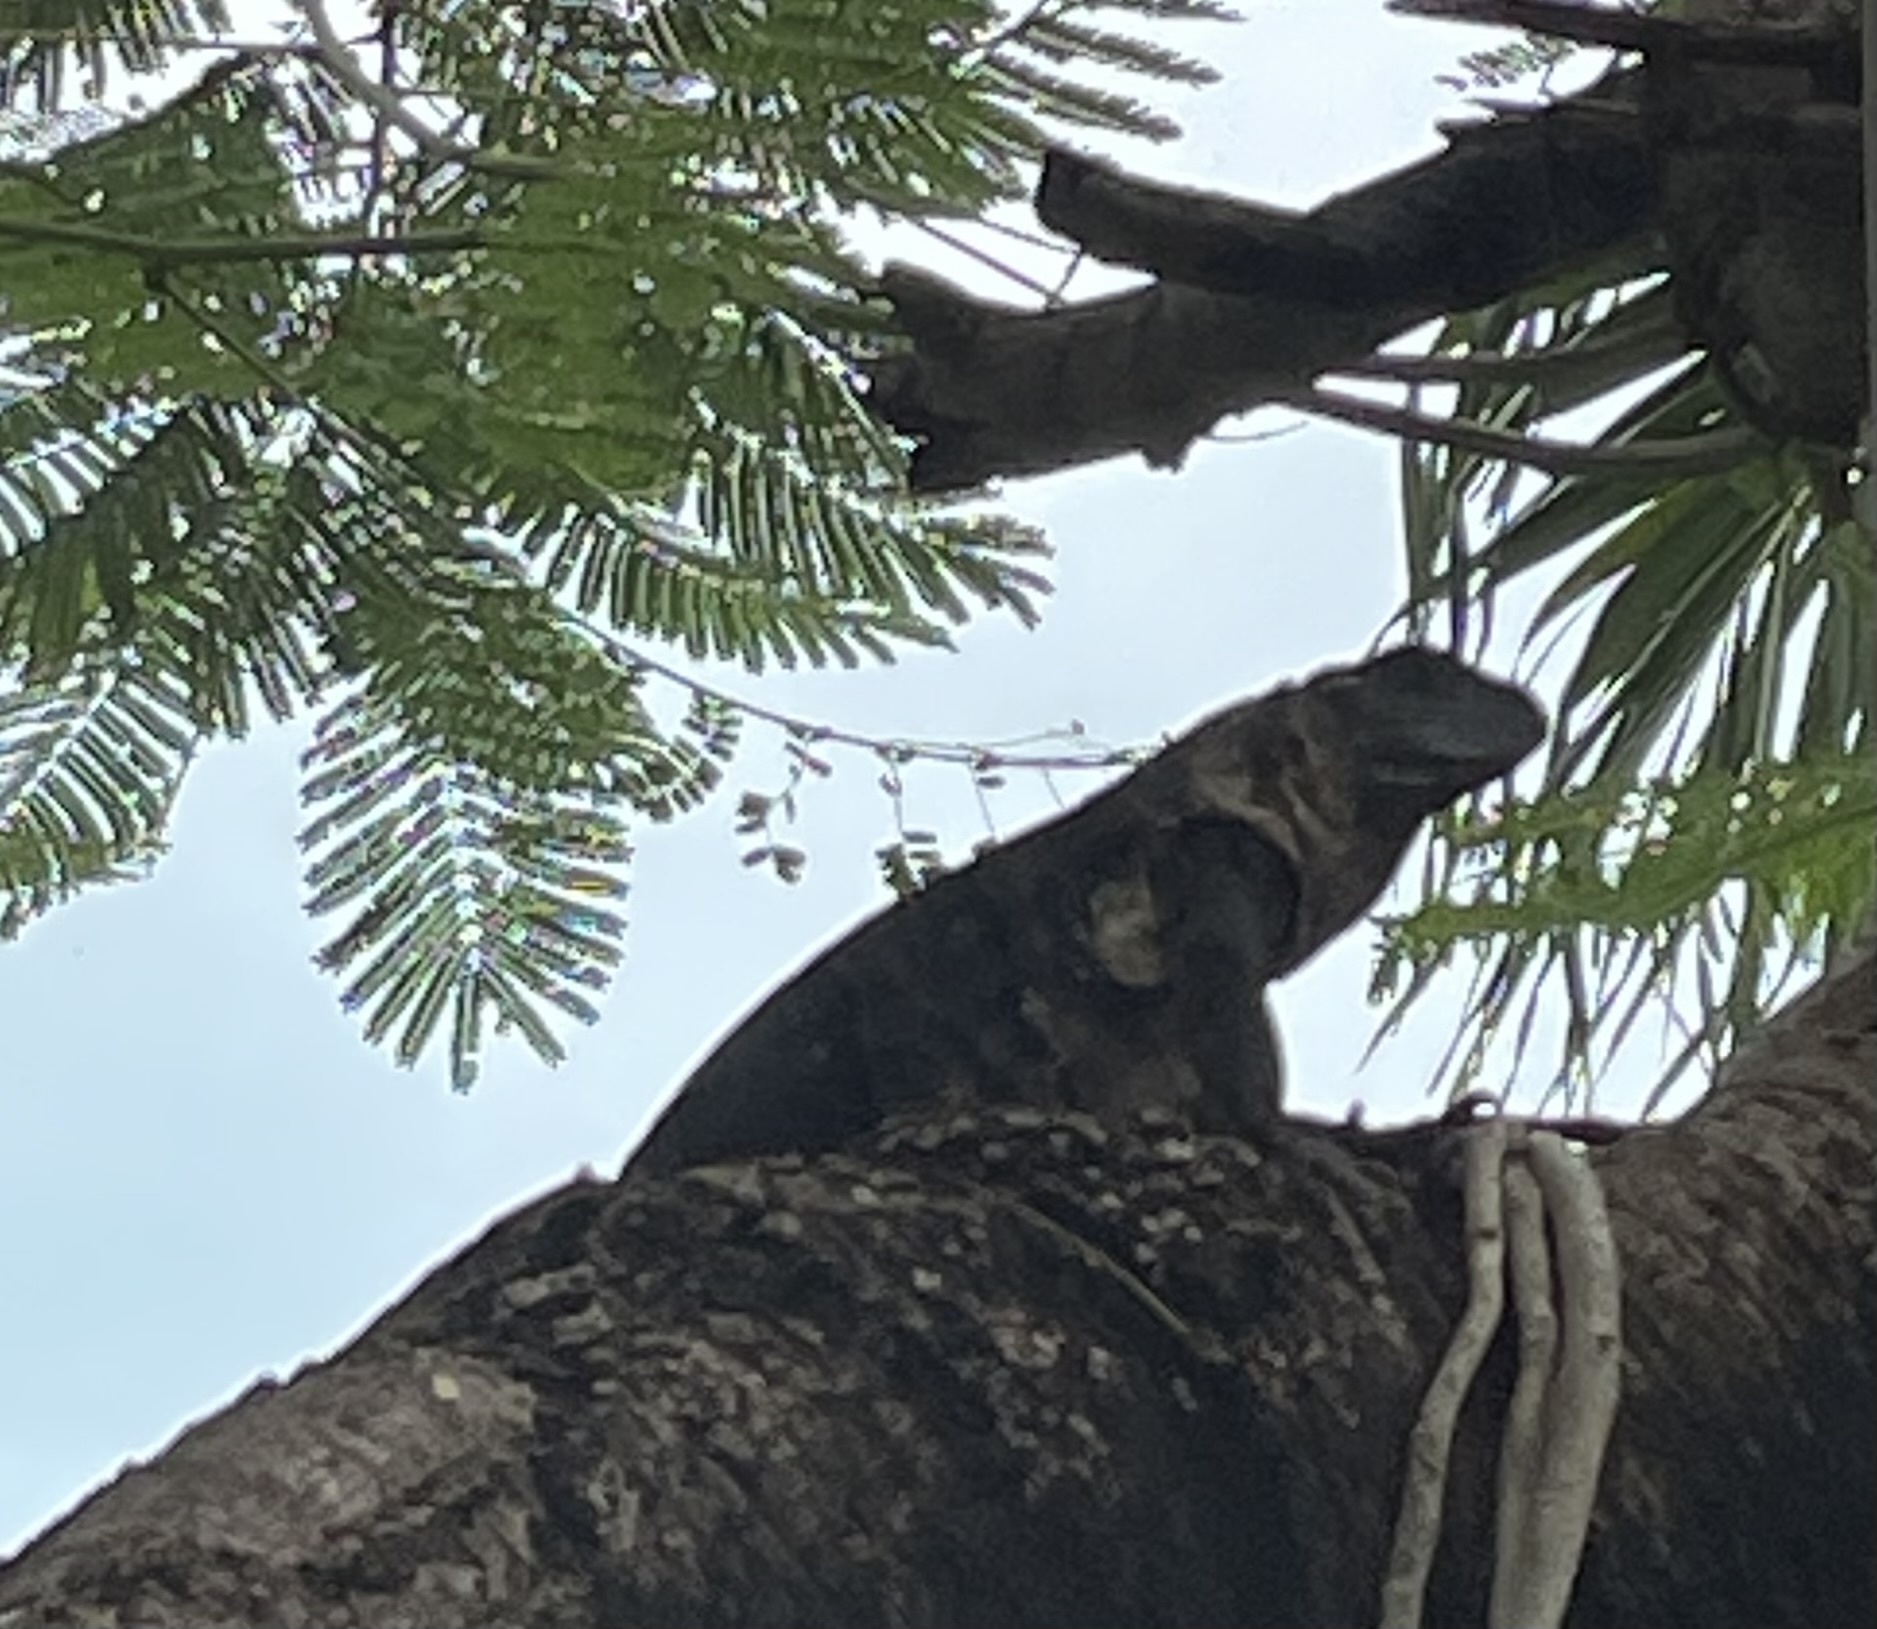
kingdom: Animalia
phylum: Chordata
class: Squamata
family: Iguanidae
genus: Ctenosaura
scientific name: Ctenosaura similis
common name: Black spiny-tailed iguana
